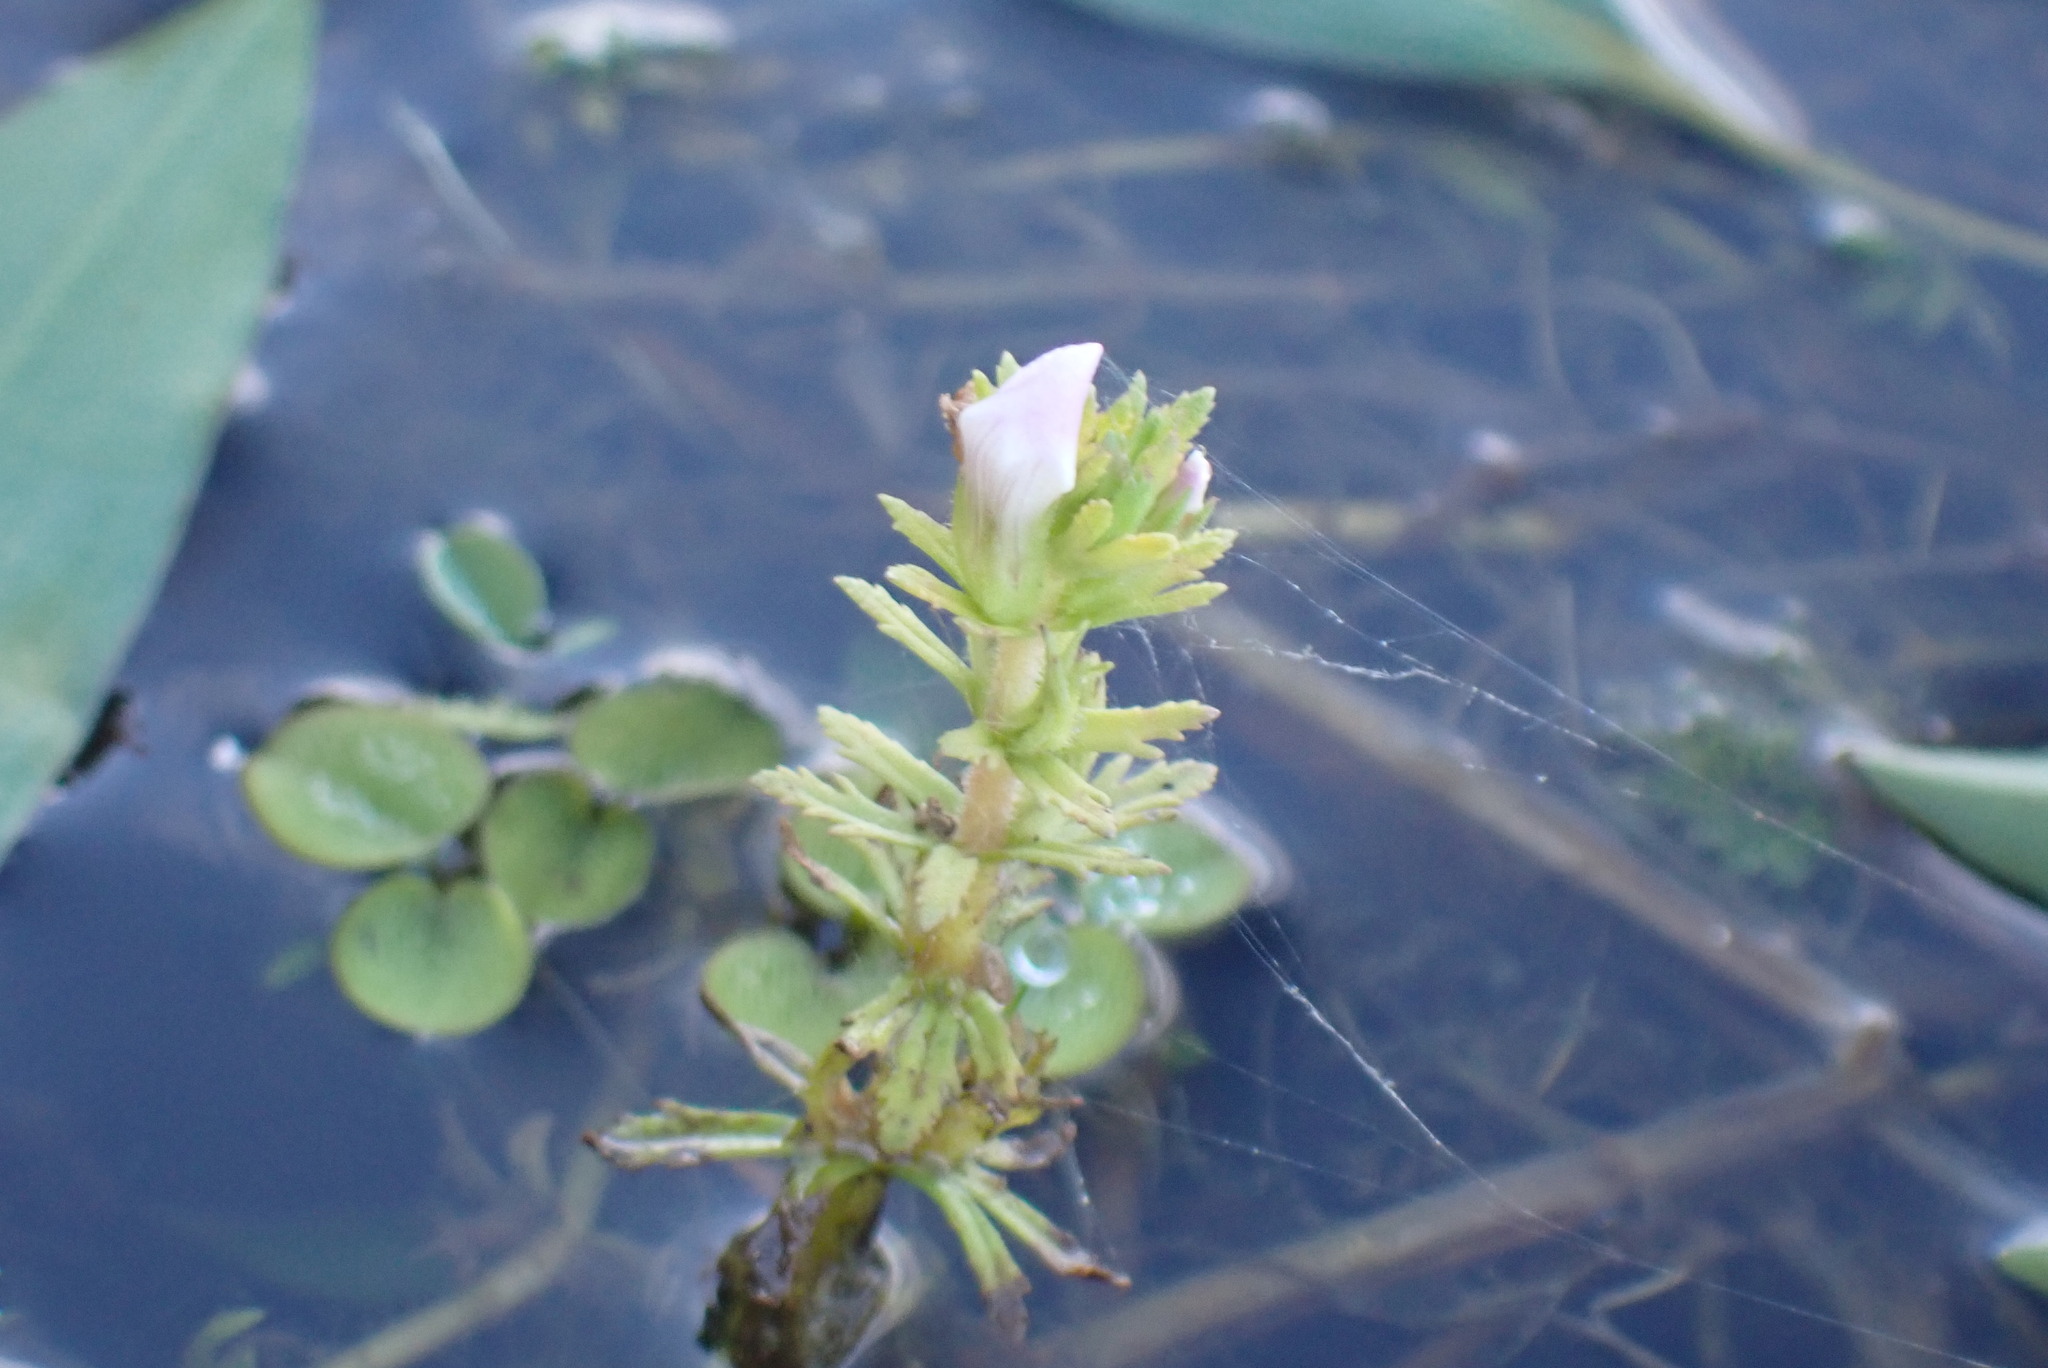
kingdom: Plantae
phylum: Tracheophyta
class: Magnoliopsida
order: Lamiales
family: Plantaginaceae
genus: Limnophila
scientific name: Limnophila sessiliflora
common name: Asian marshweed
